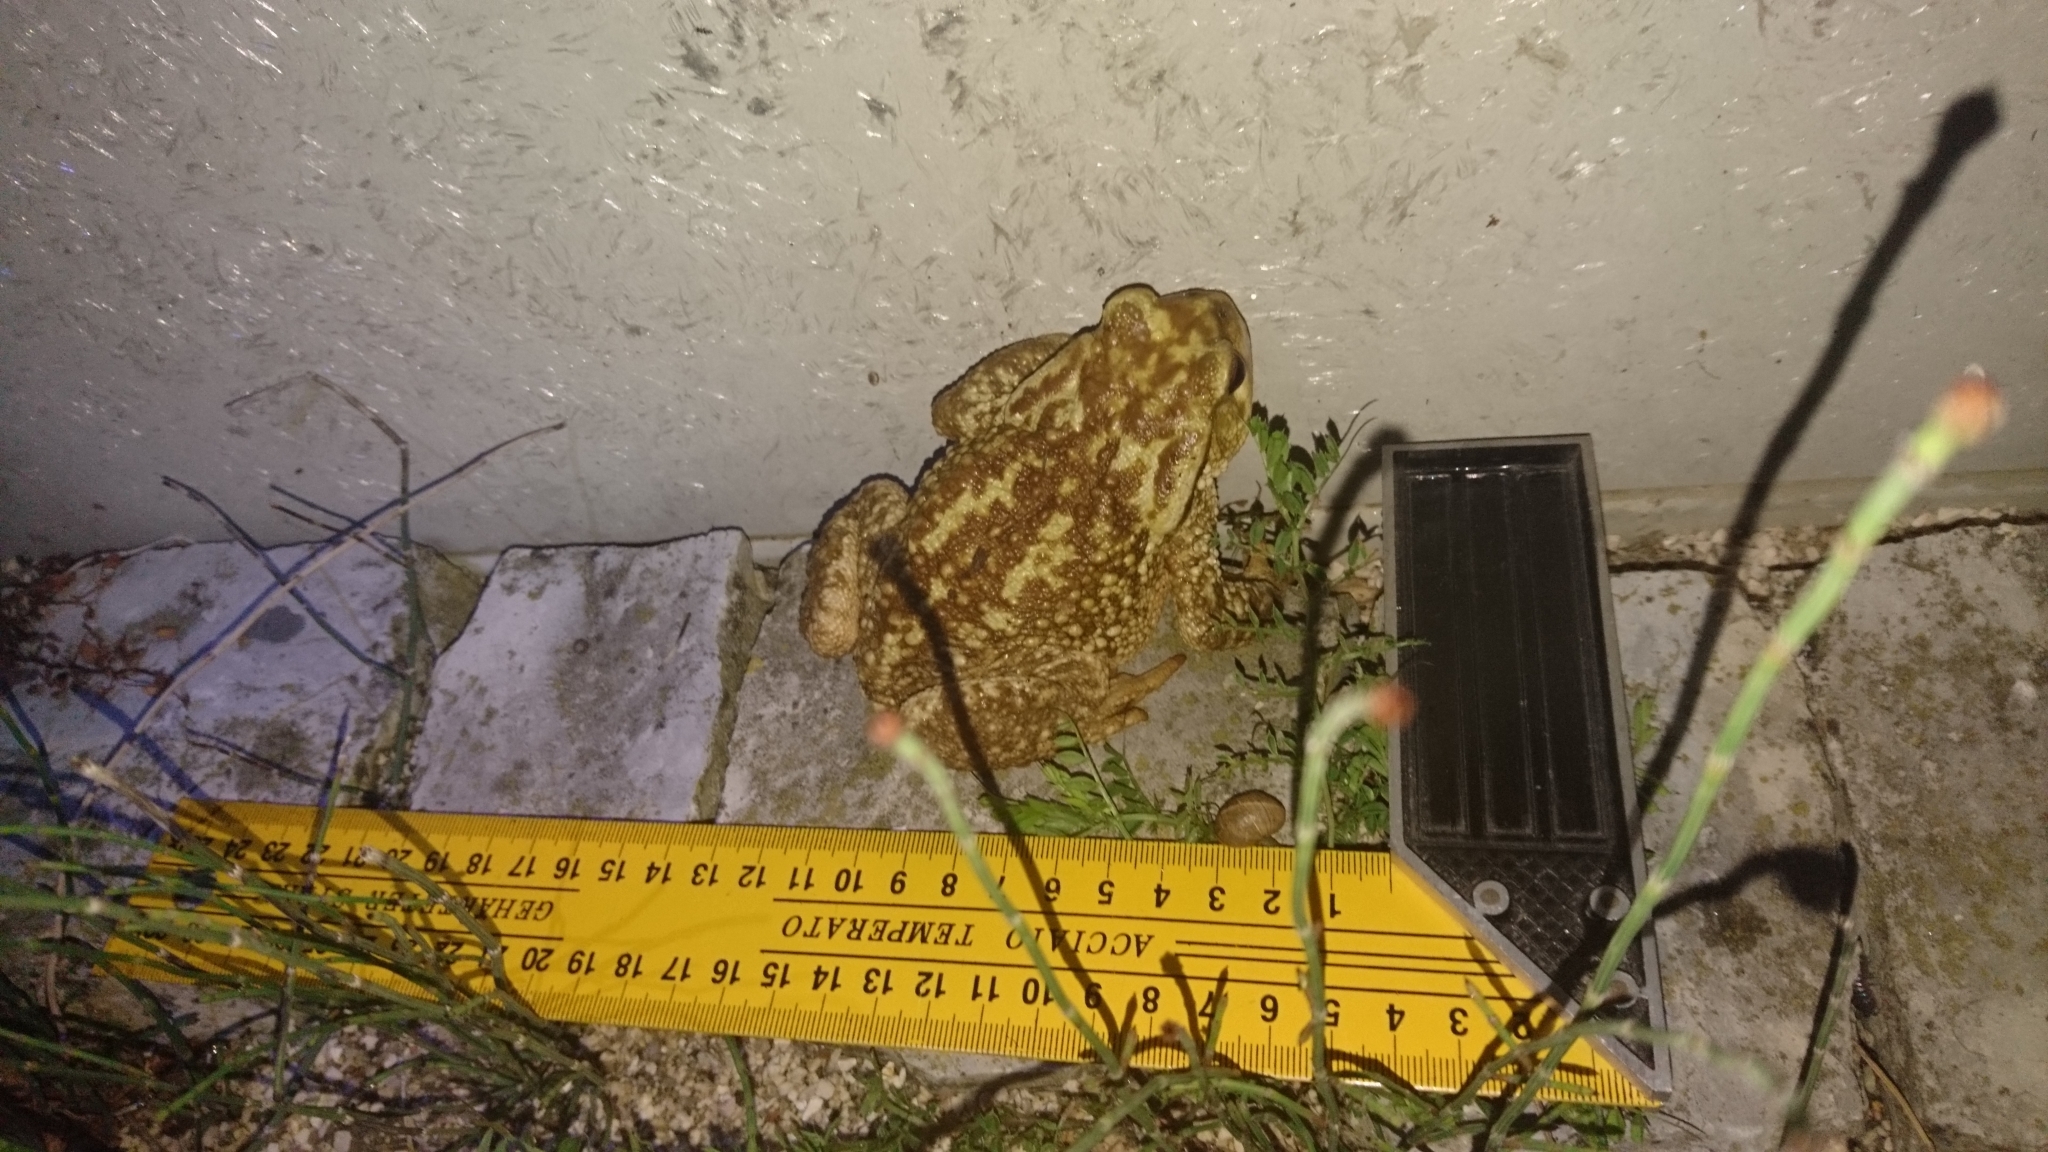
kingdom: Animalia
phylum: Chordata
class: Amphibia
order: Anura
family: Bufonidae
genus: Bufo
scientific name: Bufo spinosus
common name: Western common toad
